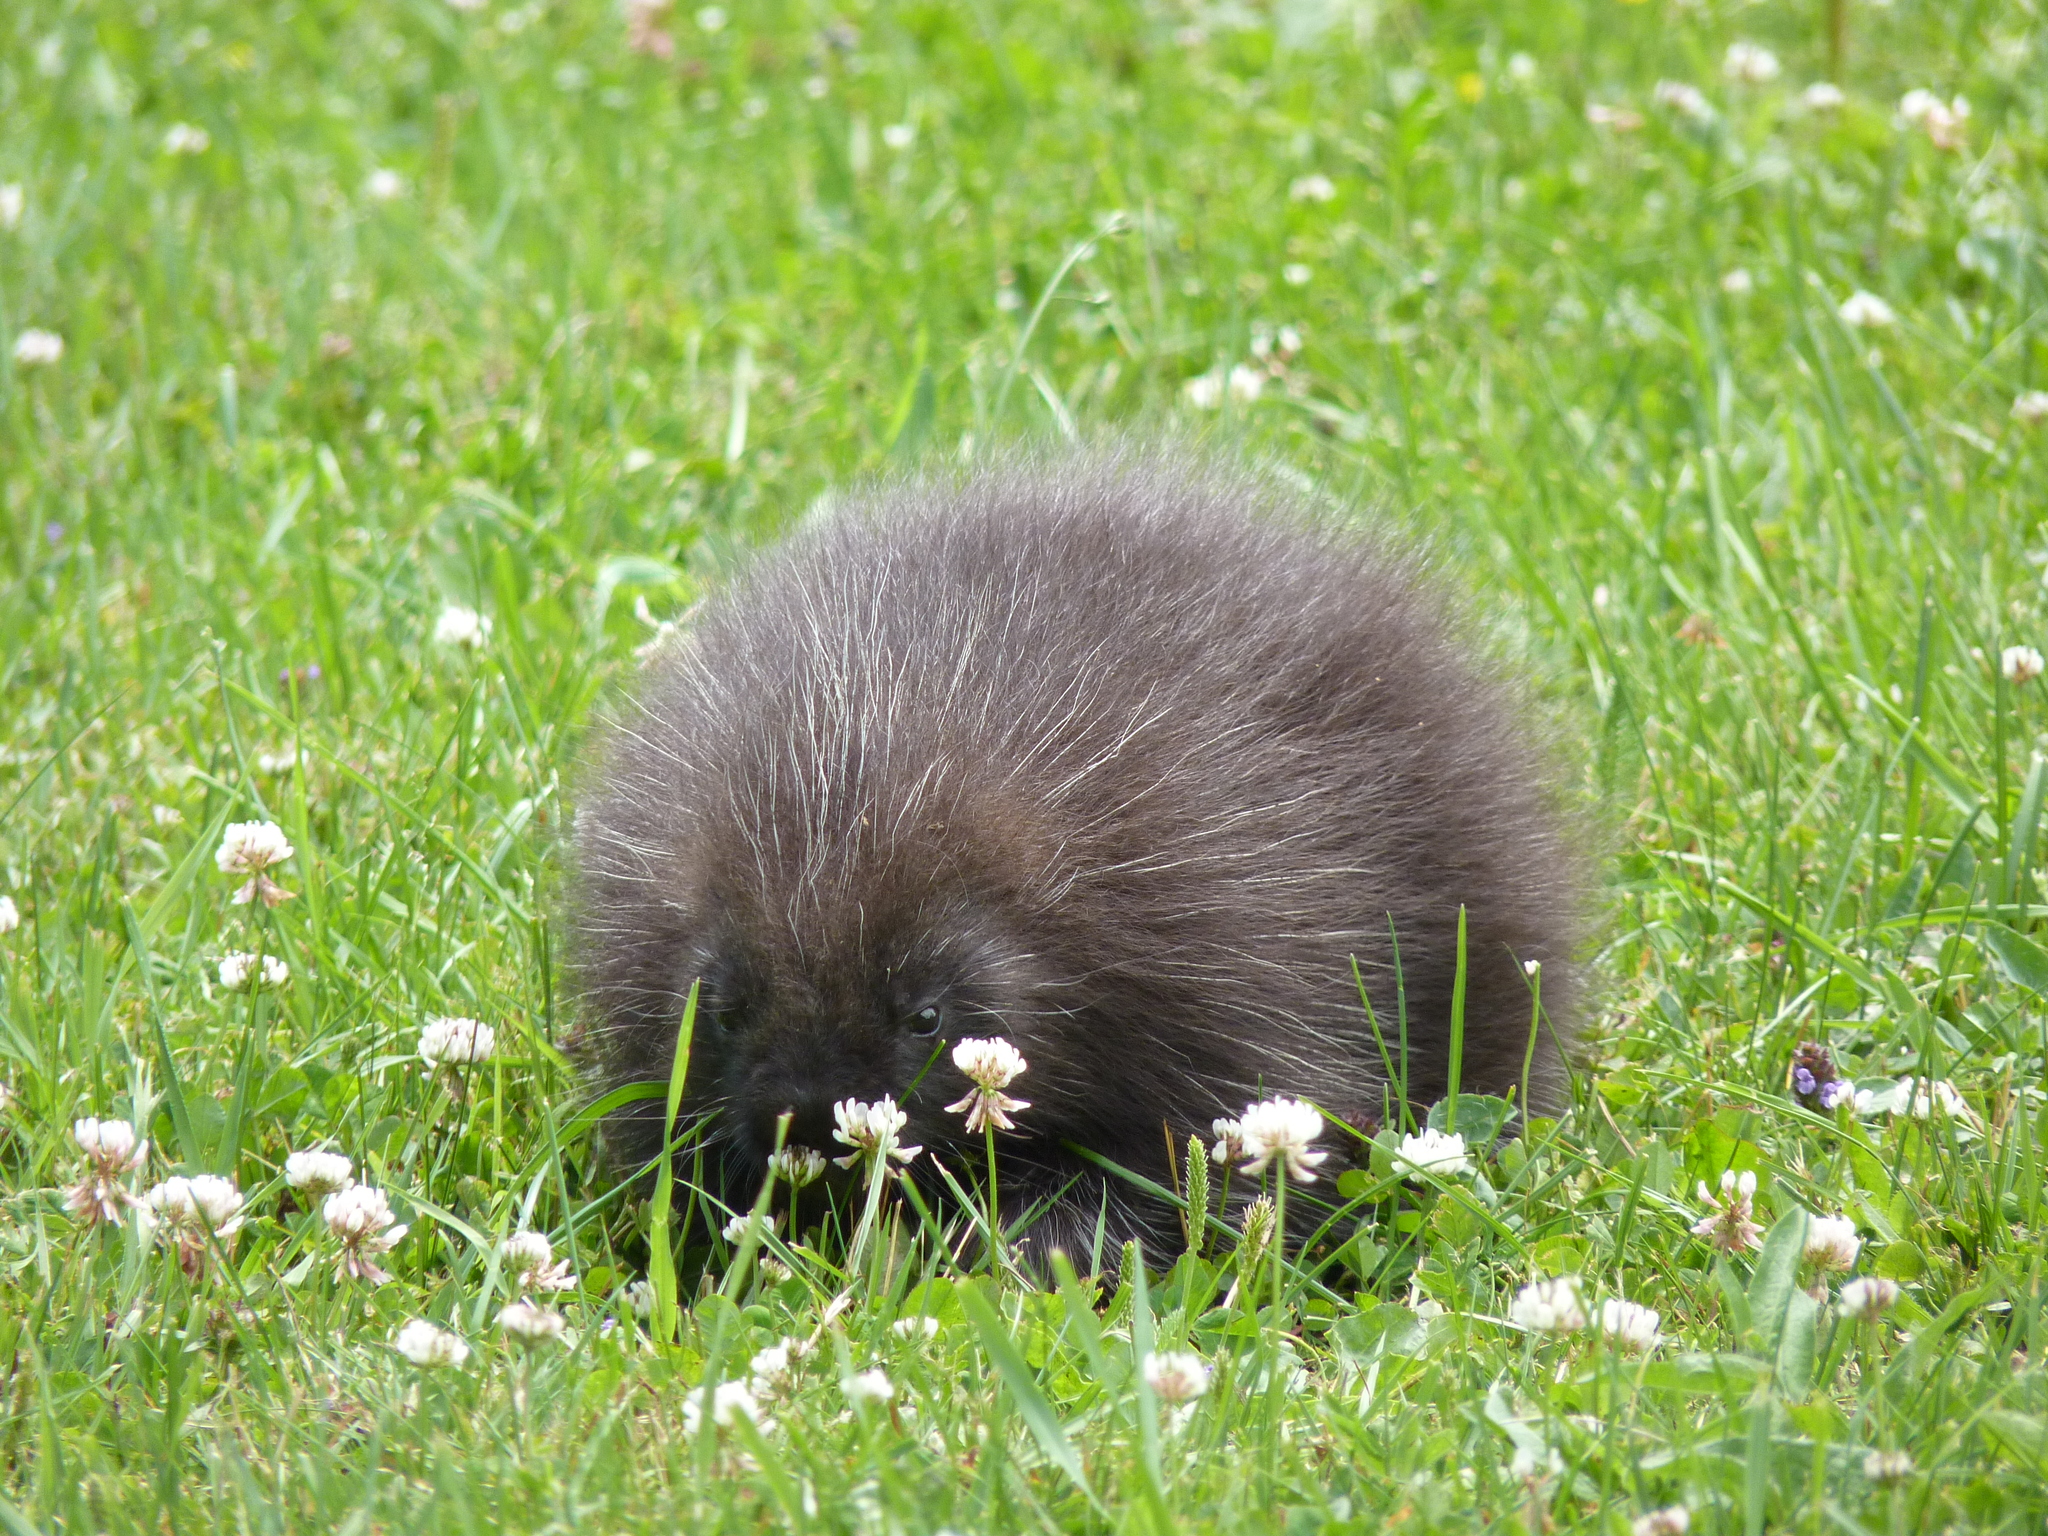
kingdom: Animalia
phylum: Chordata
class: Mammalia
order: Rodentia
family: Erethizontidae
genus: Erethizon
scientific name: Erethizon dorsatus
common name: North american porcupine
